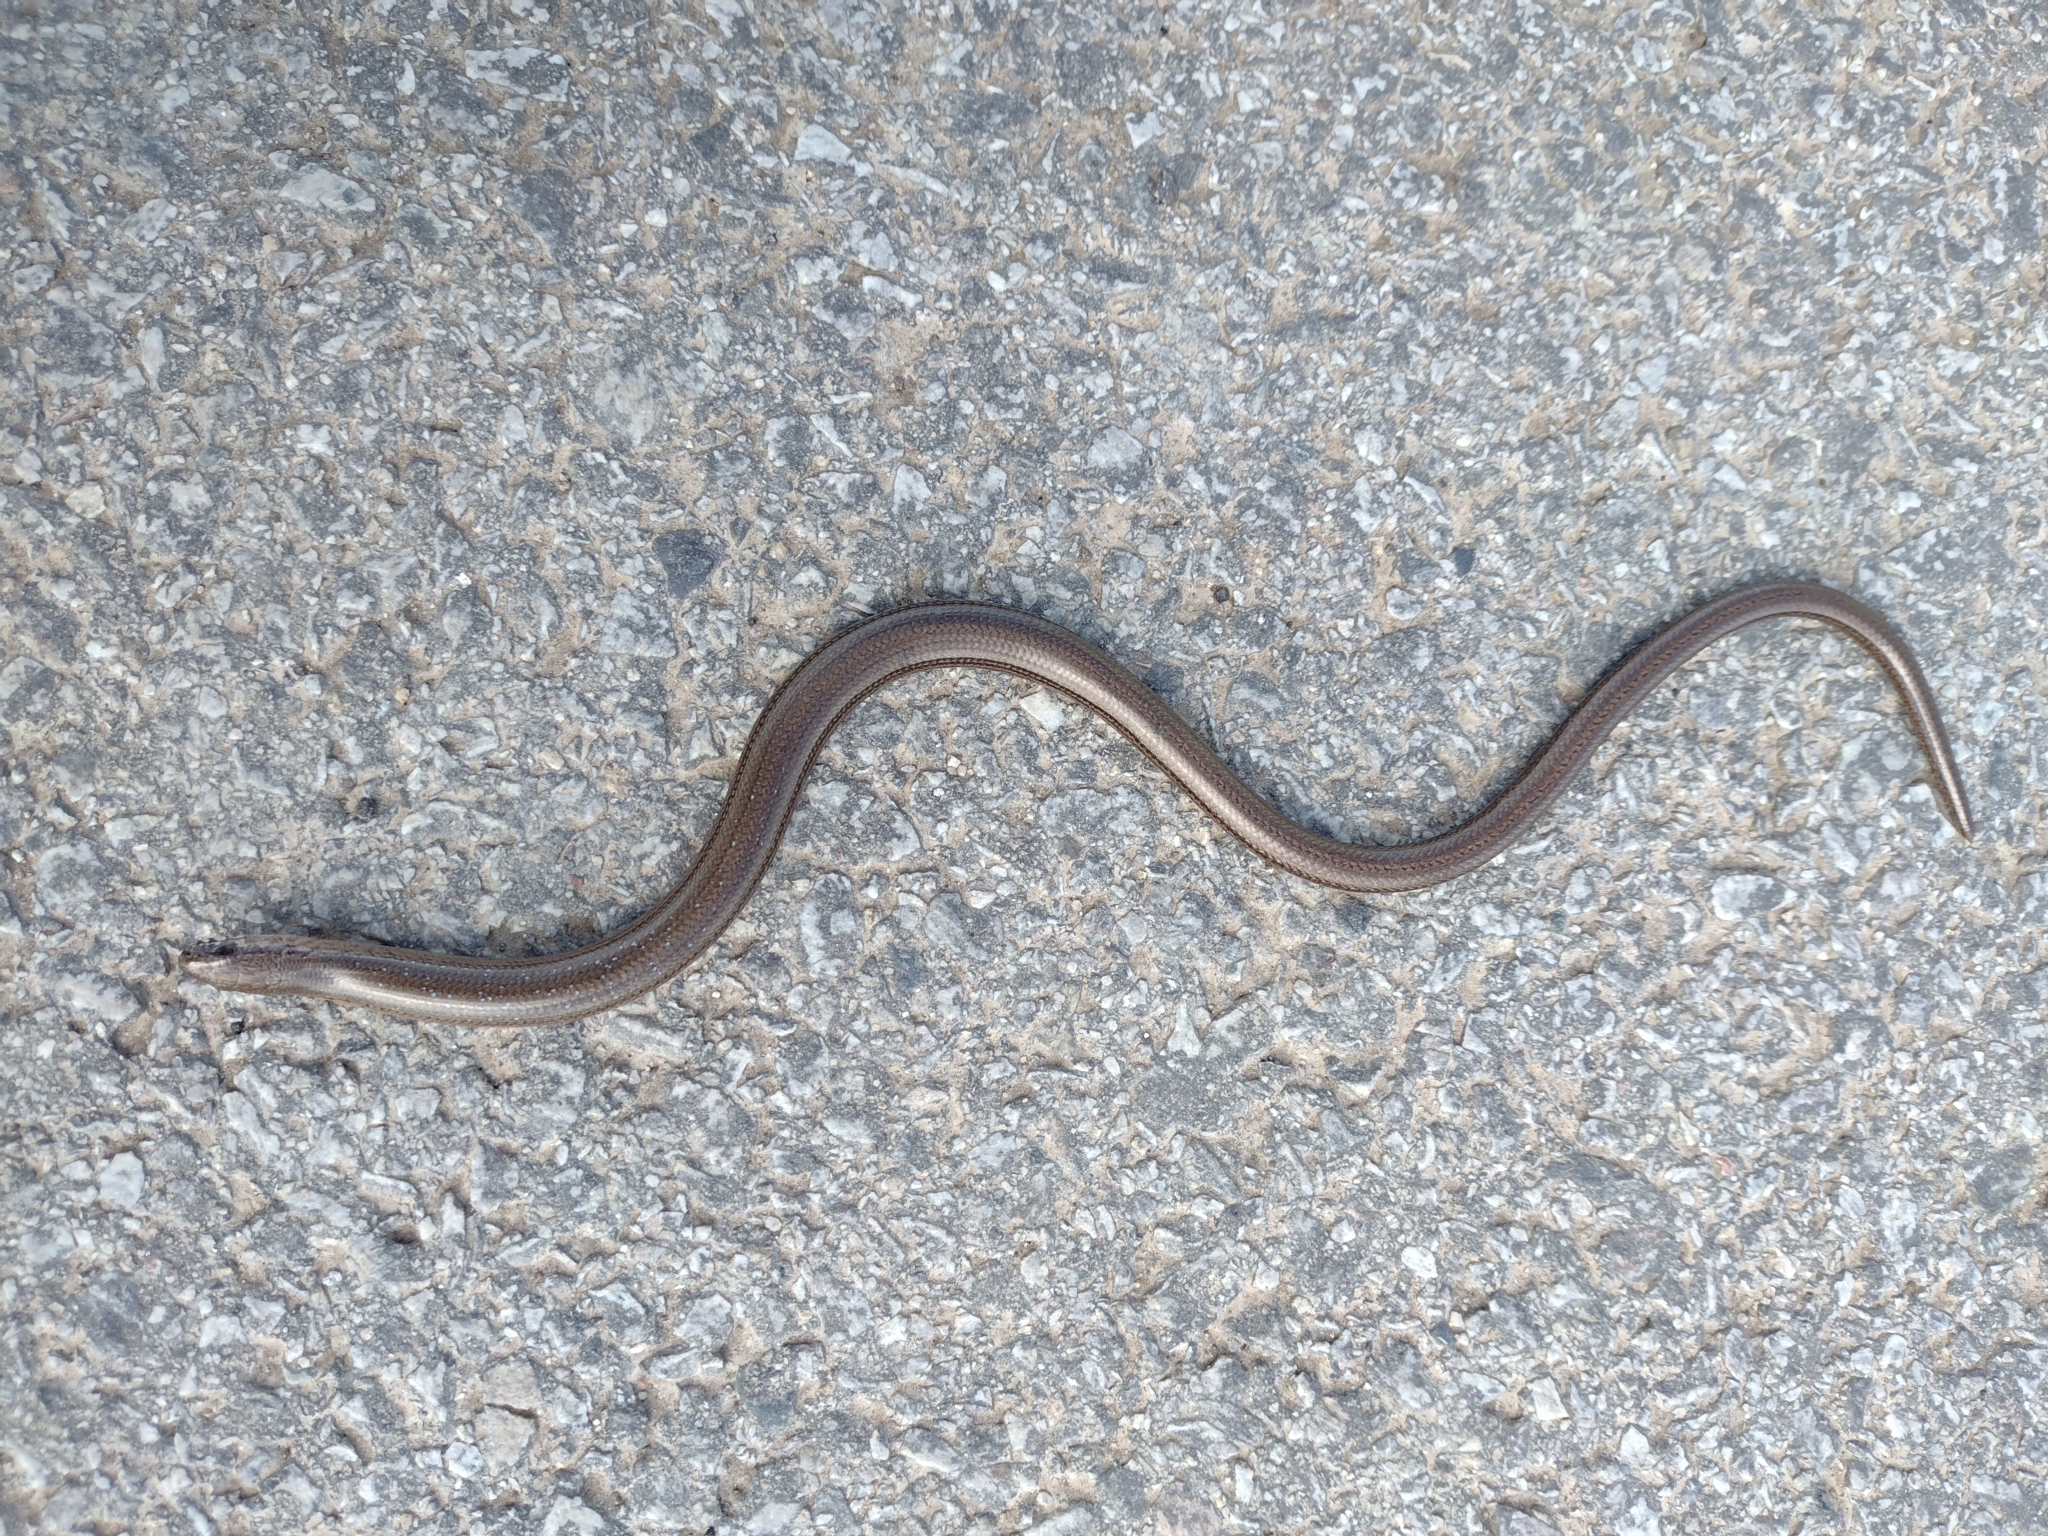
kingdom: Animalia
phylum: Chordata
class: Squamata
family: Anguidae
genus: Anguis
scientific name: Anguis fragilis
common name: Slow worm
